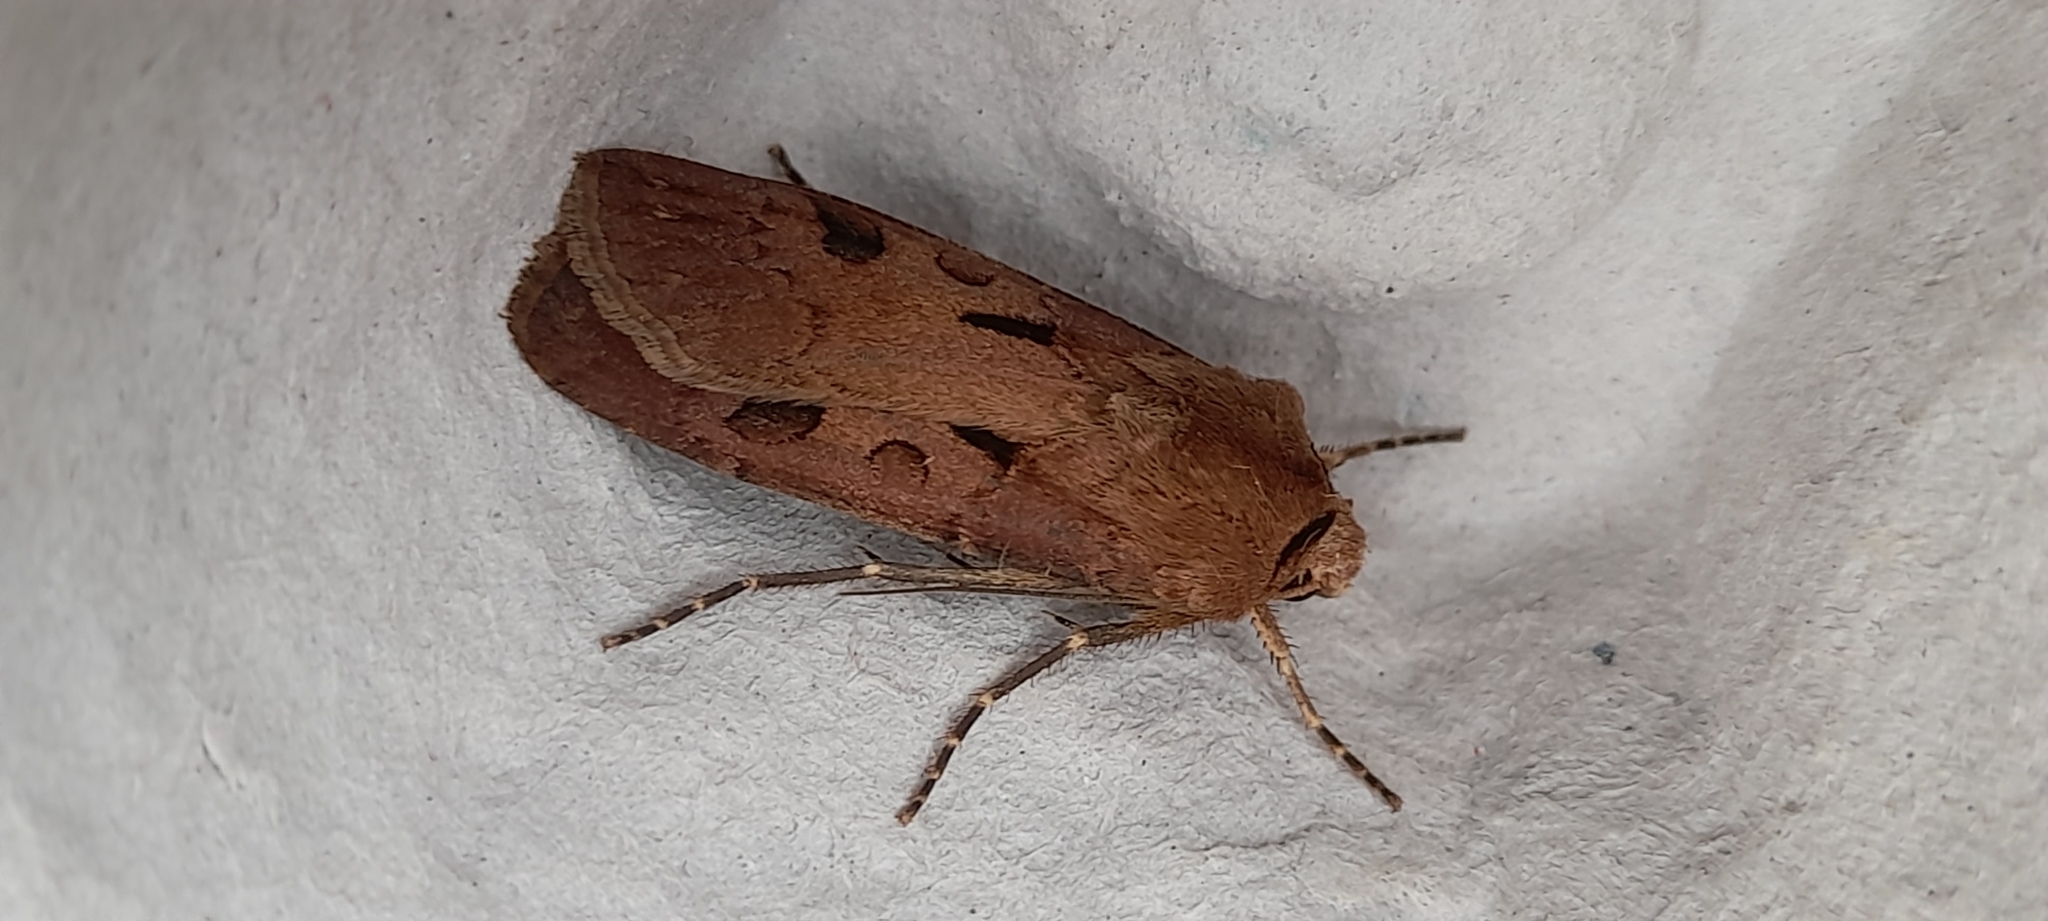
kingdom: Animalia
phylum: Arthropoda
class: Insecta
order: Lepidoptera
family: Noctuidae
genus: Agrotis
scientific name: Agrotis exclamationis
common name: Heart and dart
